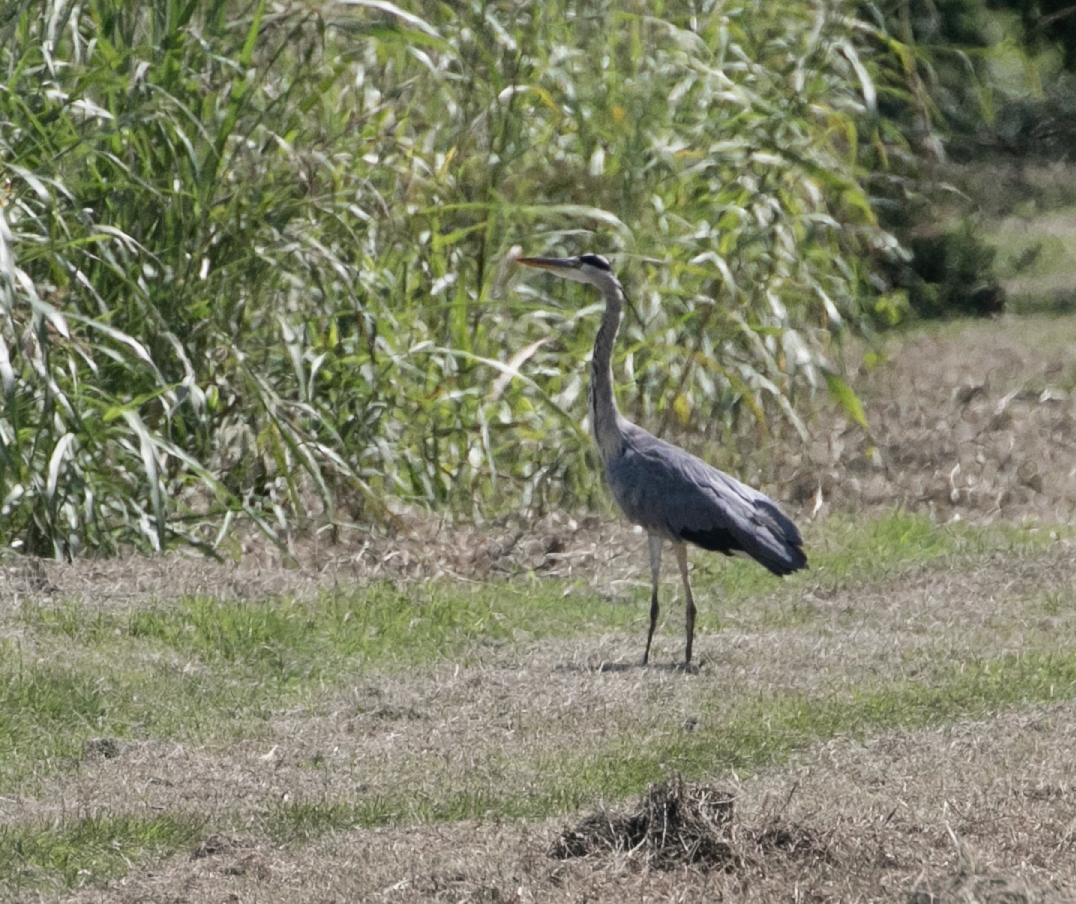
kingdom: Animalia
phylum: Chordata
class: Aves
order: Pelecaniformes
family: Ardeidae
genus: Ardea
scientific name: Ardea cinerea
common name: Grey heron
